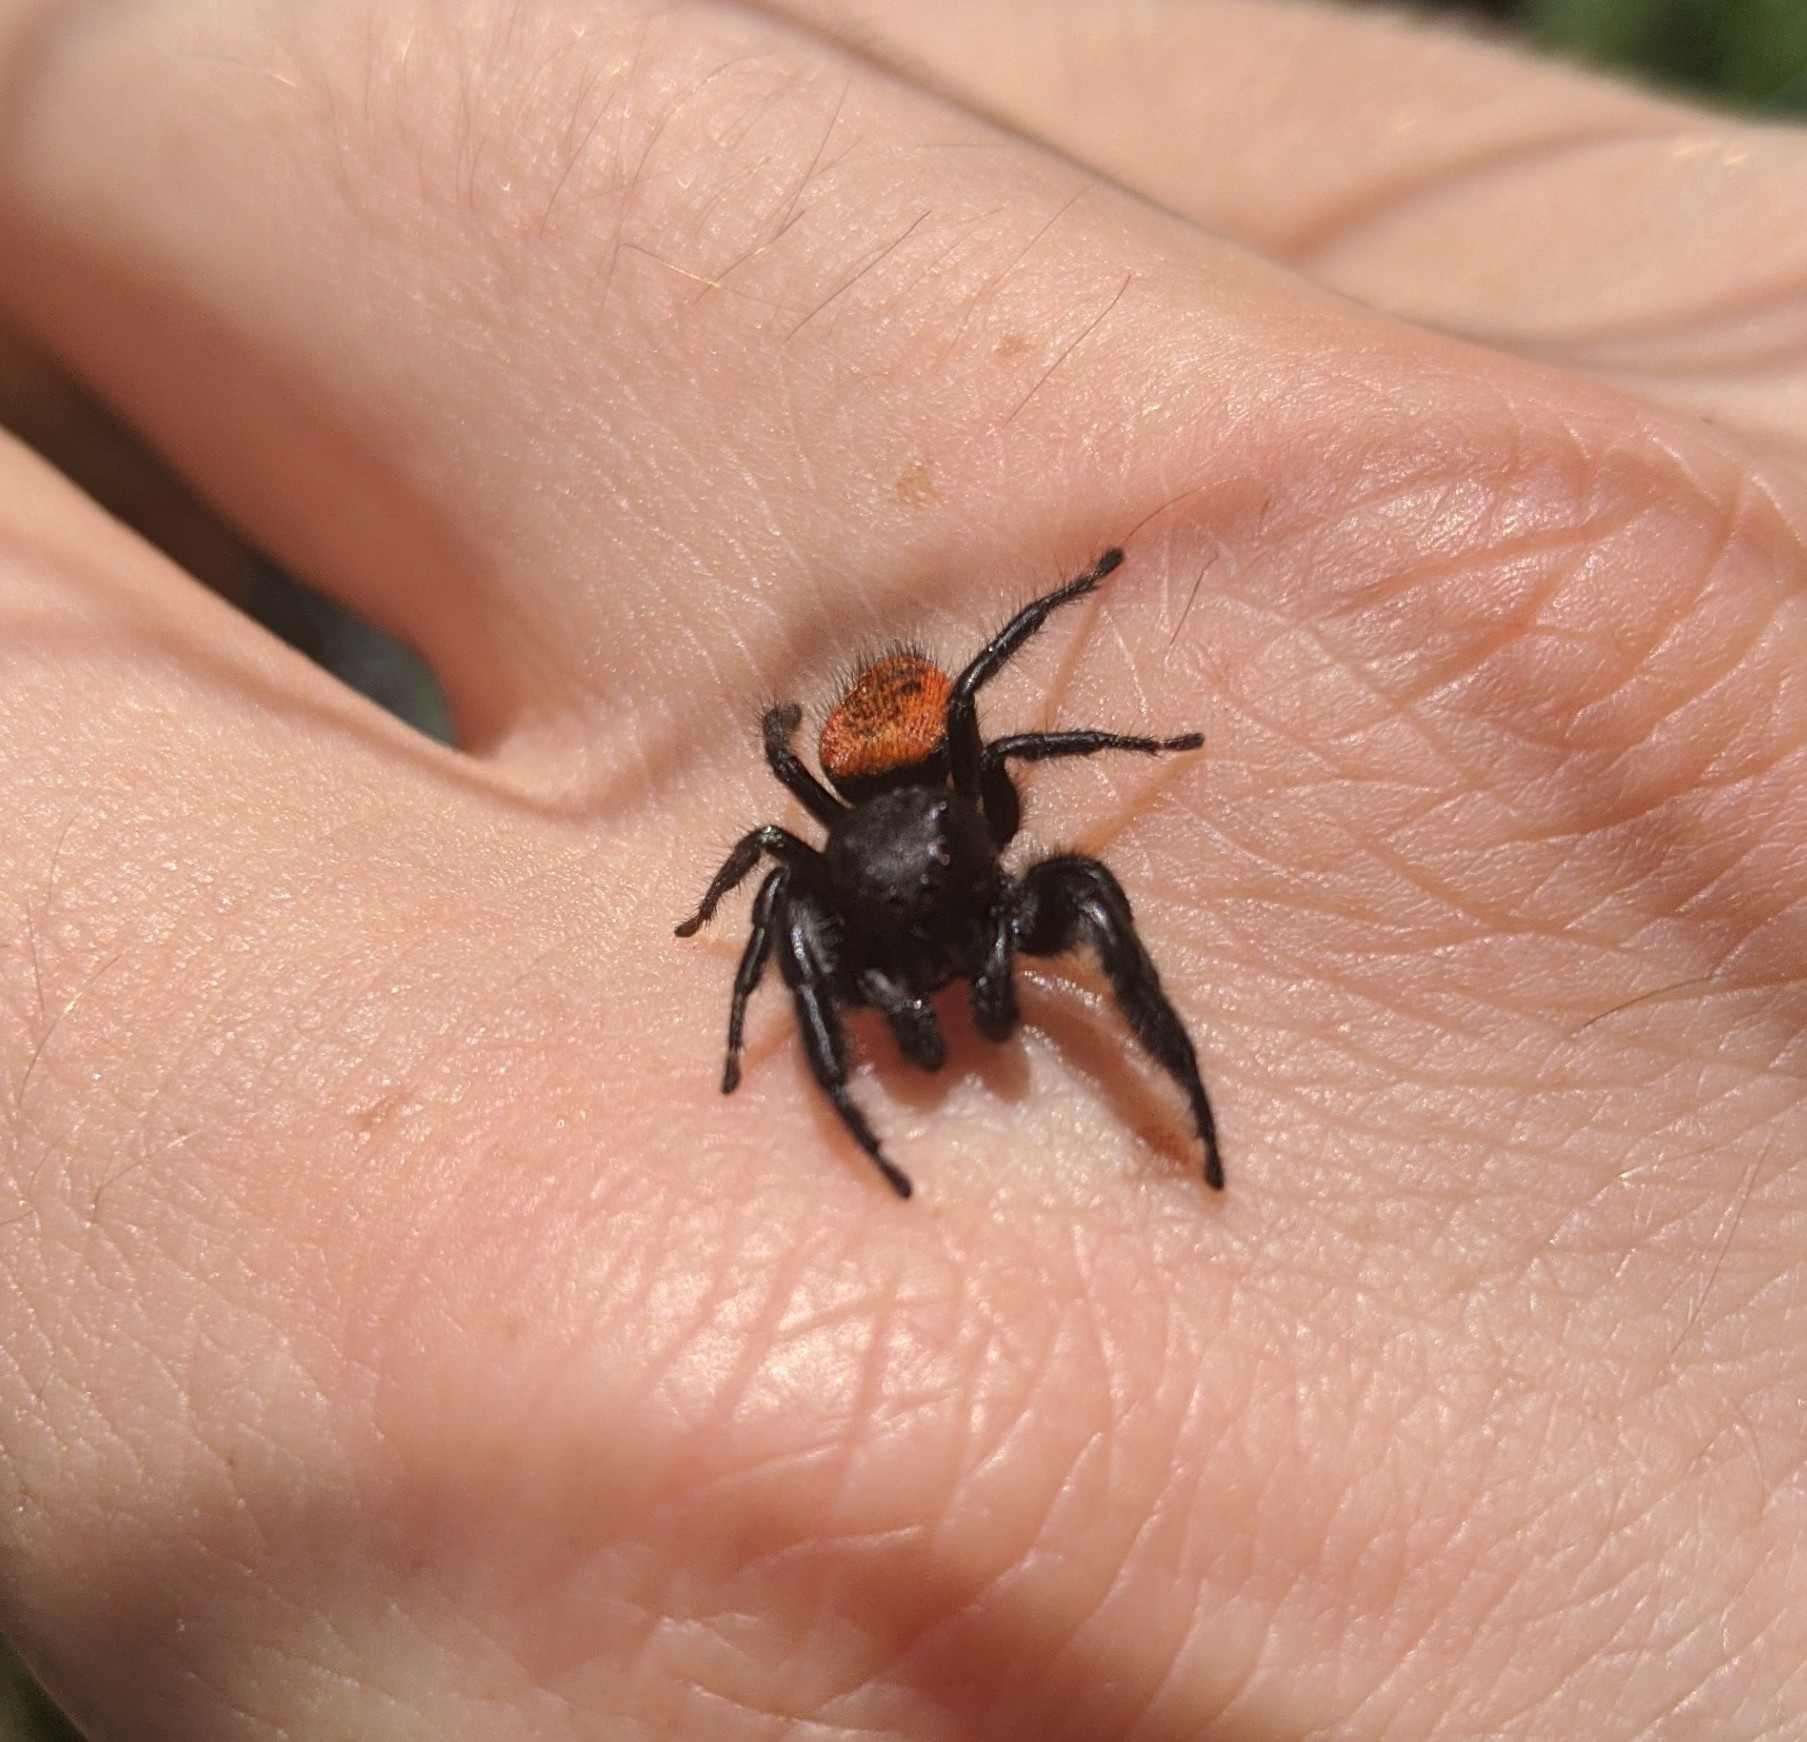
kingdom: Animalia
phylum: Arthropoda
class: Arachnida
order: Araneae
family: Salticidae
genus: Phidippus
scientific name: Phidippus johnsoni
